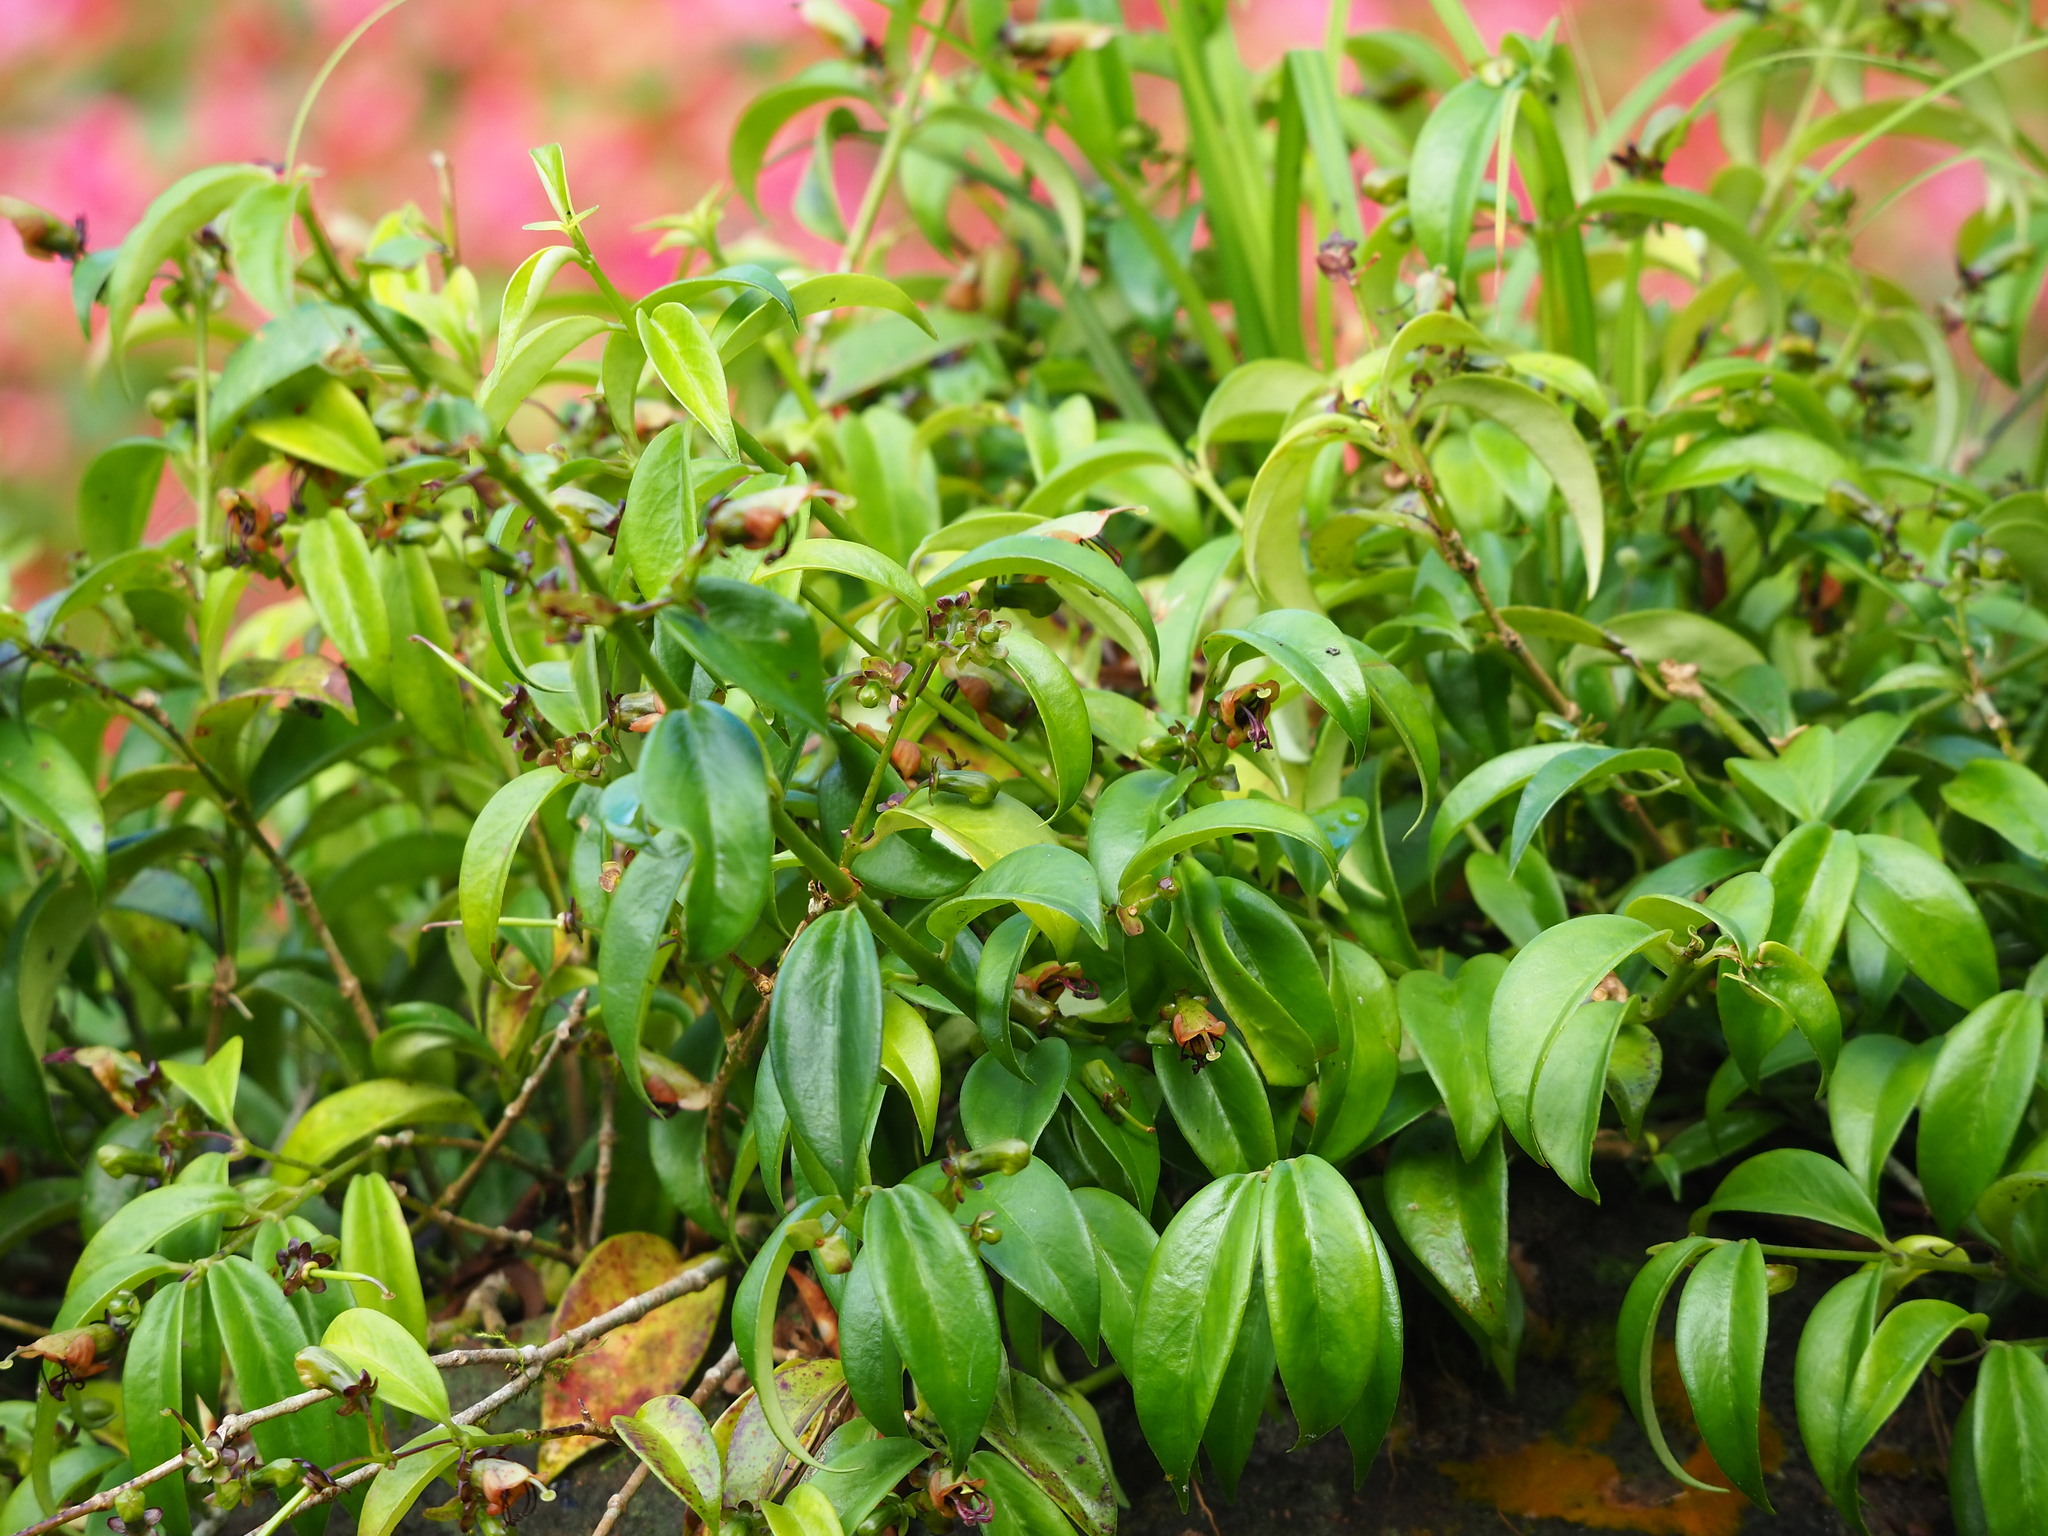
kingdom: Plantae
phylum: Tracheophyta
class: Magnoliopsida
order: Lamiales
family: Gesneriaceae
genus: Aeschynanthus
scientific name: Aeschynanthus acuminatus
